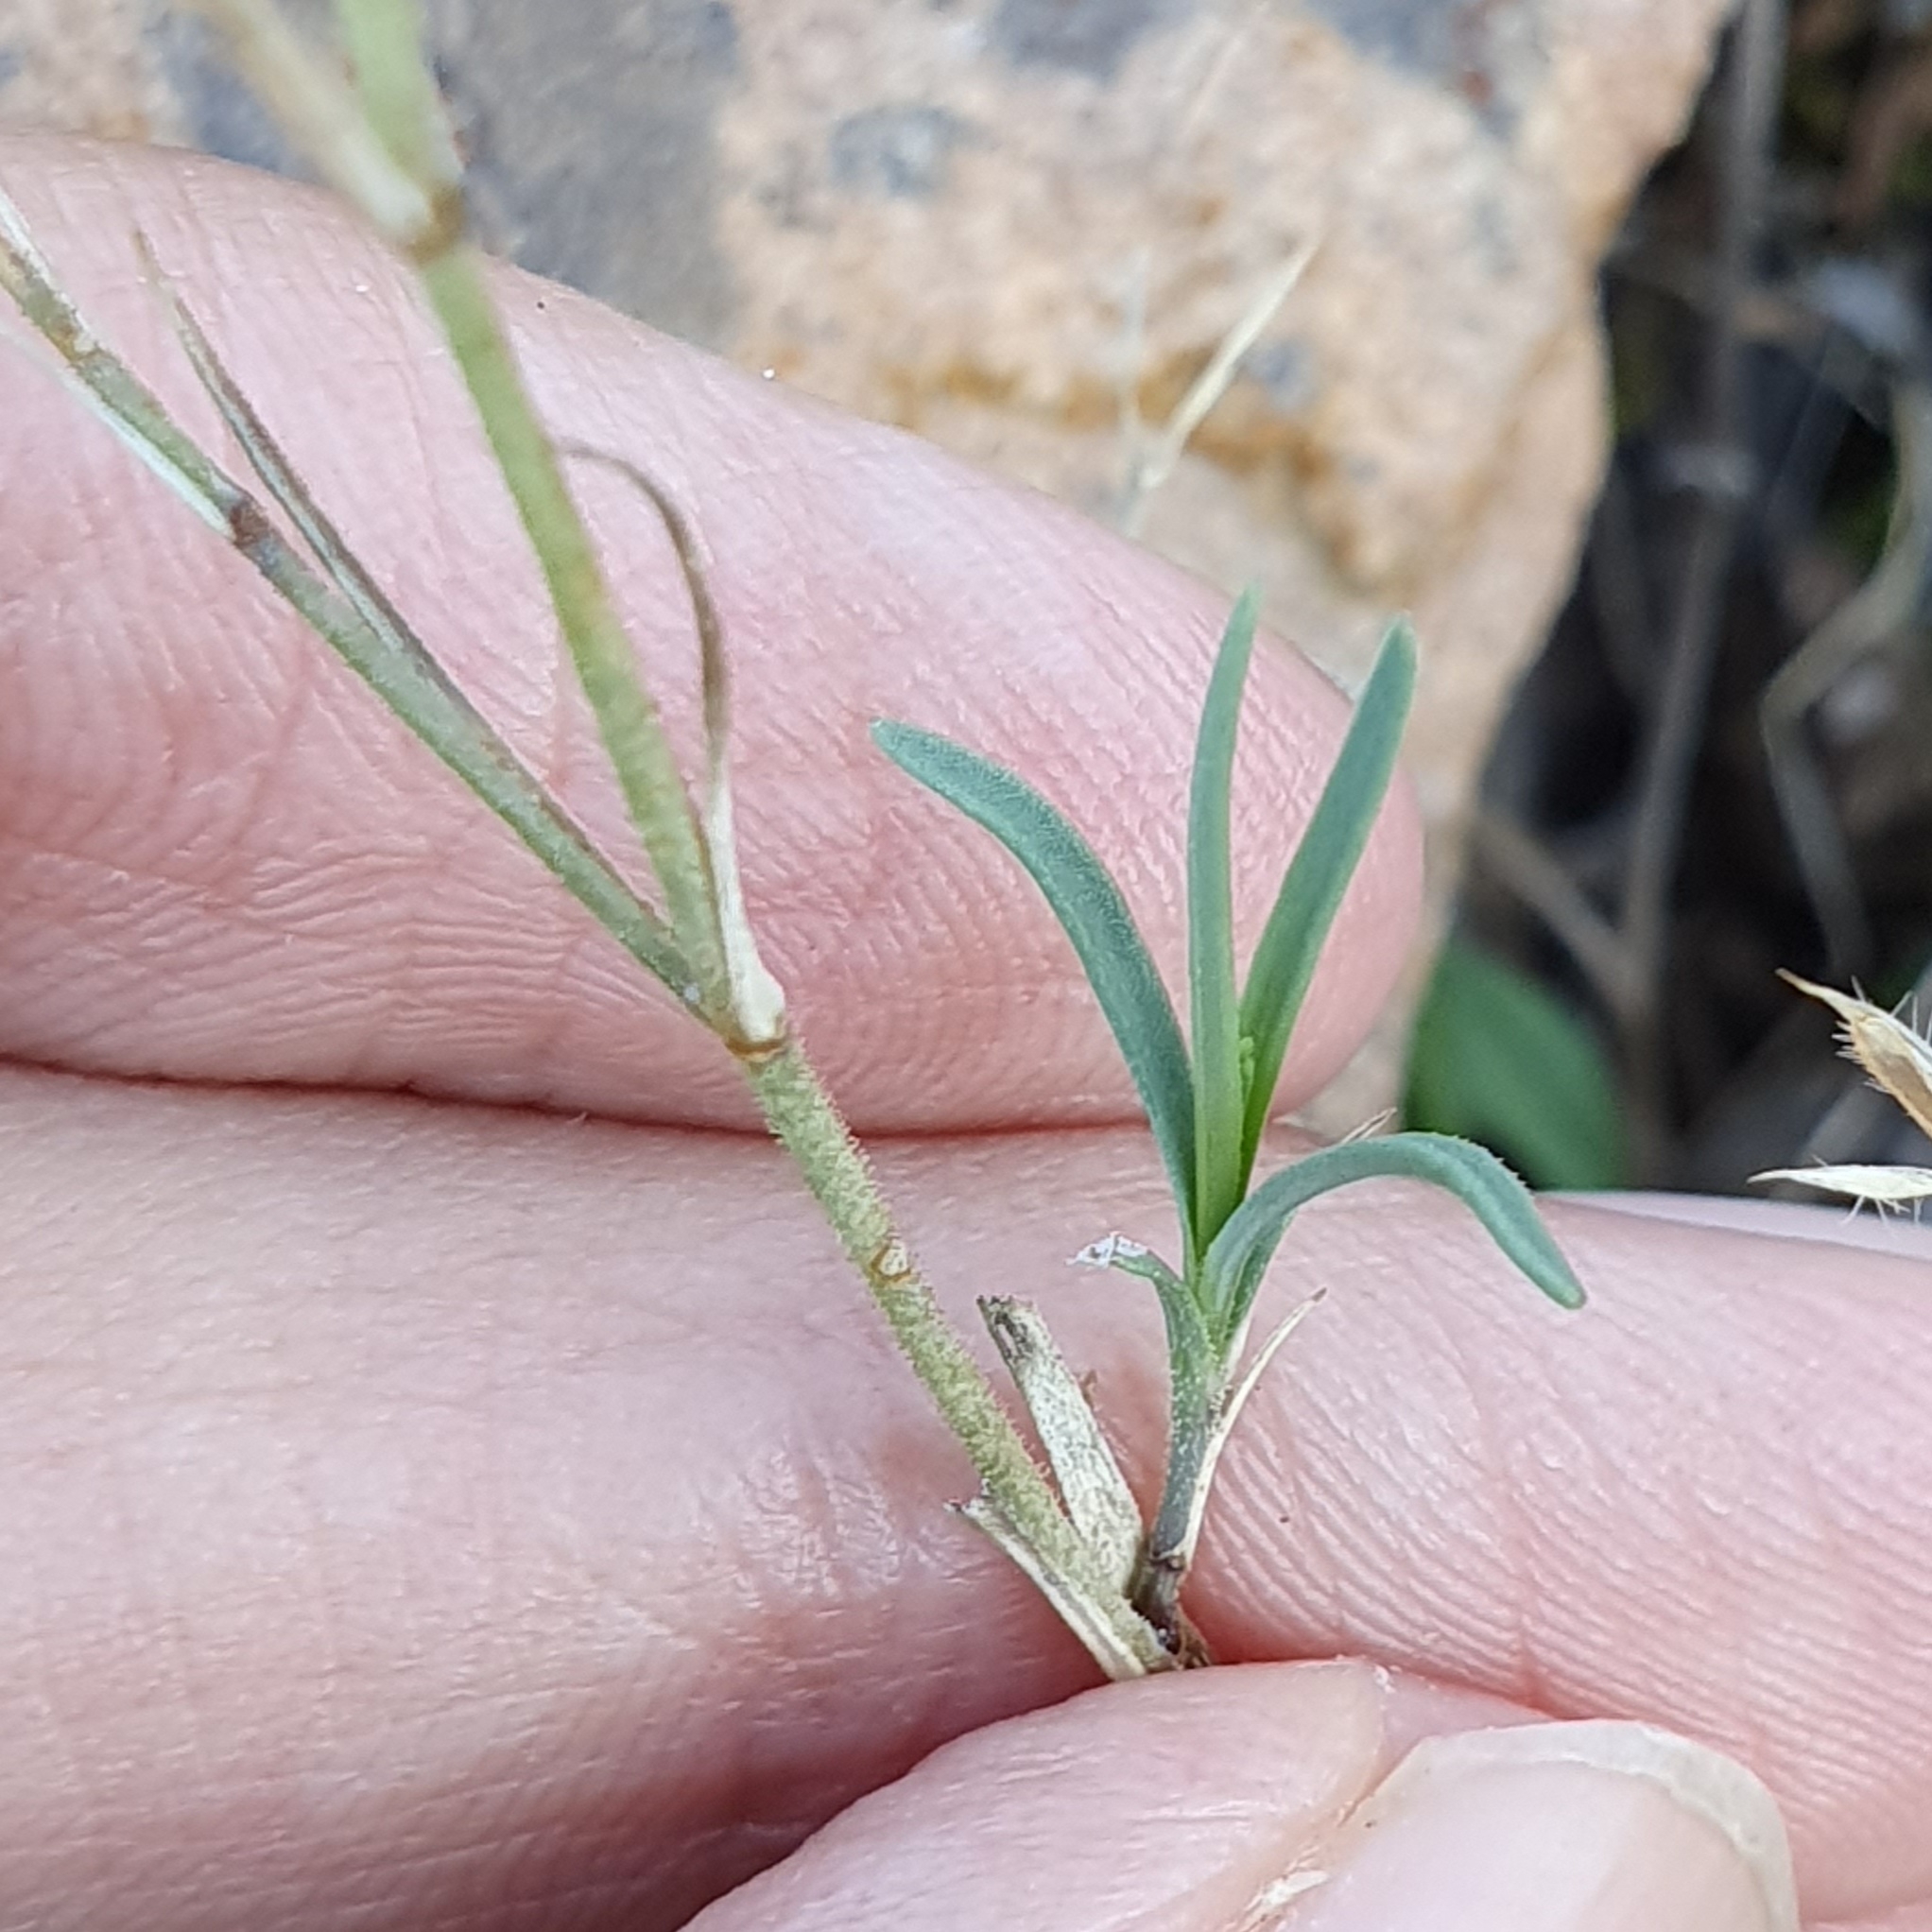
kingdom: Plantae
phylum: Tracheophyta
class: Magnoliopsida
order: Caryophyllales
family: Caryophyllaceae
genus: Dianthus
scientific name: Dianthus illyricus
